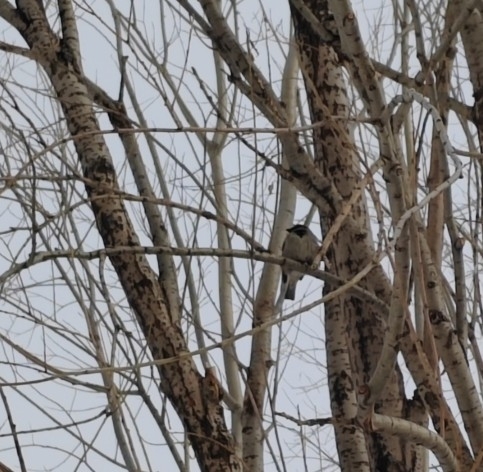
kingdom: Animalia
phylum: Chordata
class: Aves
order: Passeriformes
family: Passeridae
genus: Passer
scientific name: Passer domesticus
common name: House sparrow
